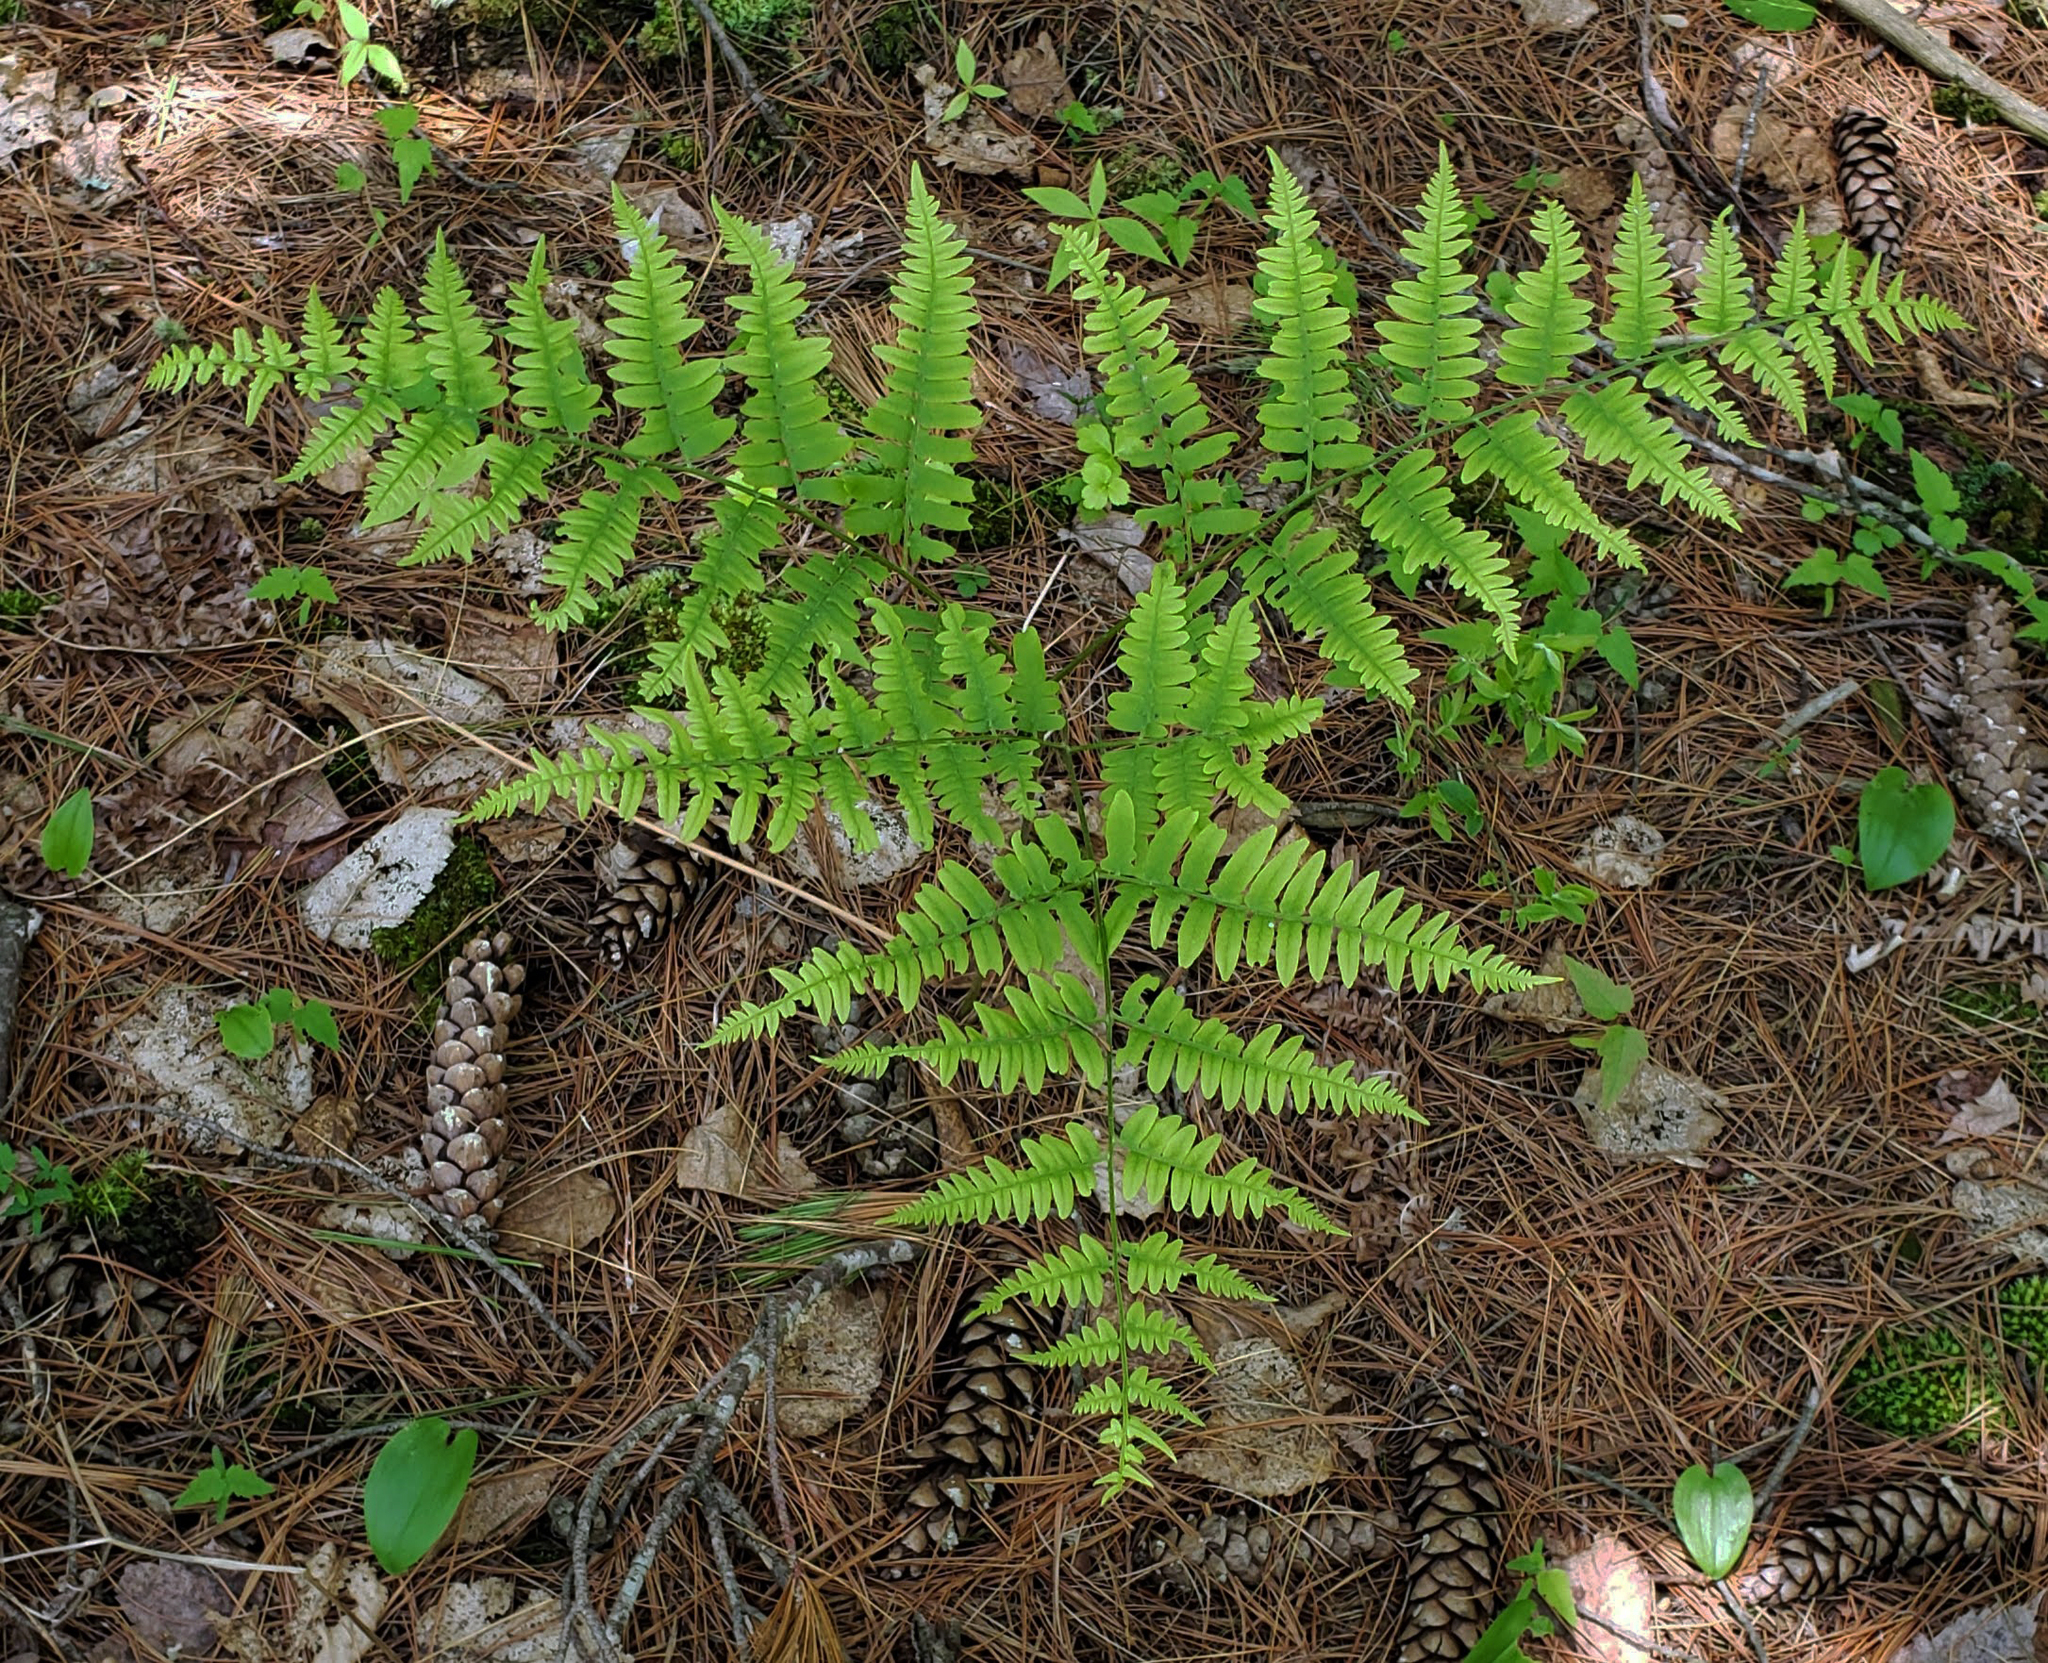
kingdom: Plantae
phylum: Tracheophyta
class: Polypodiopsida
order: Polypodiales
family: Dennstaedtiaceae
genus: Pteridium
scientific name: Pteridium aquilinum
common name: Bracken
